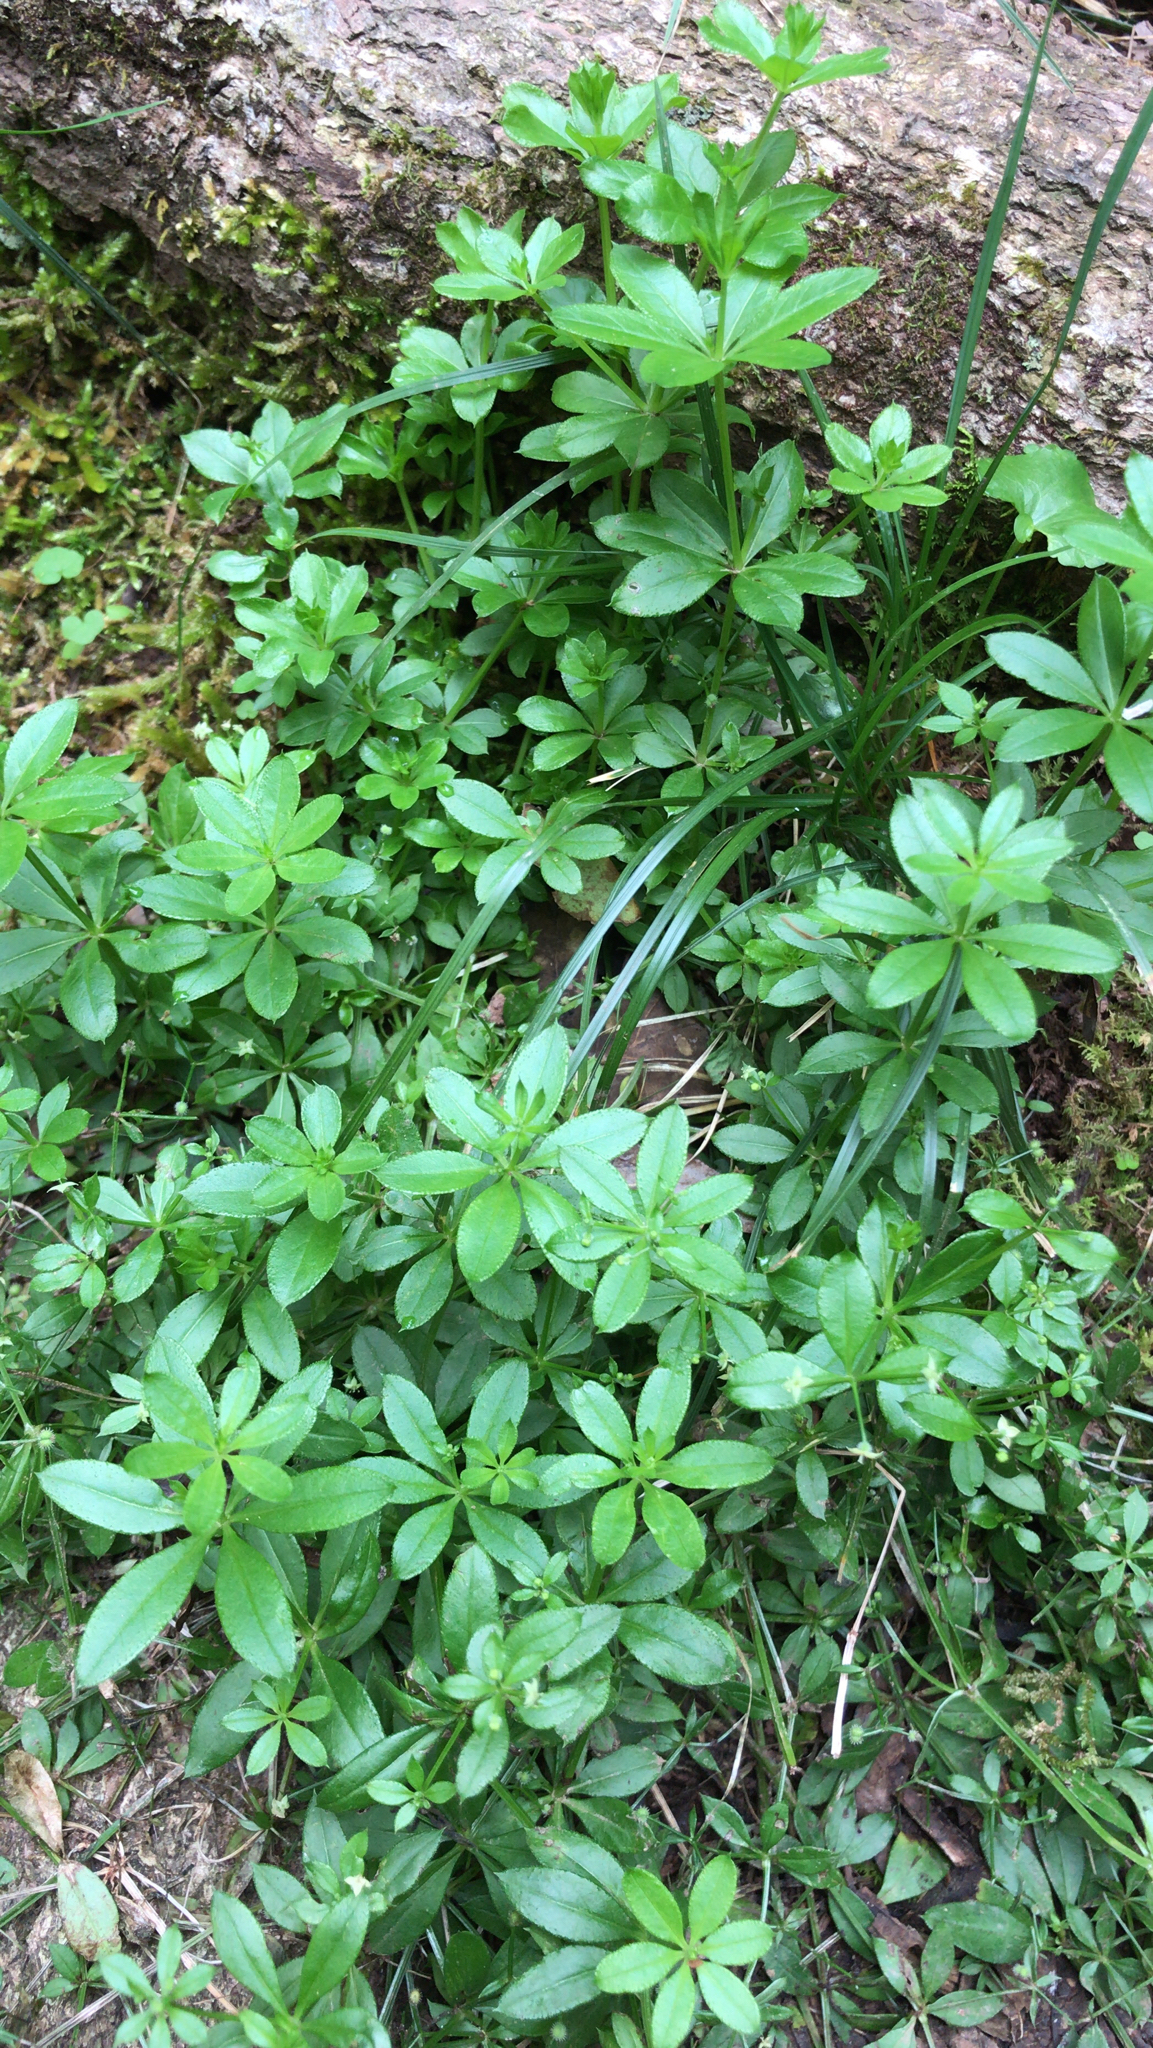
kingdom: Plantae
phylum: Tracheophyta
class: Magnoliopsida
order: Gentianales
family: Rubiaceae
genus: Galium
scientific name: Galium triflorum
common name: Fragrant bedstraw
